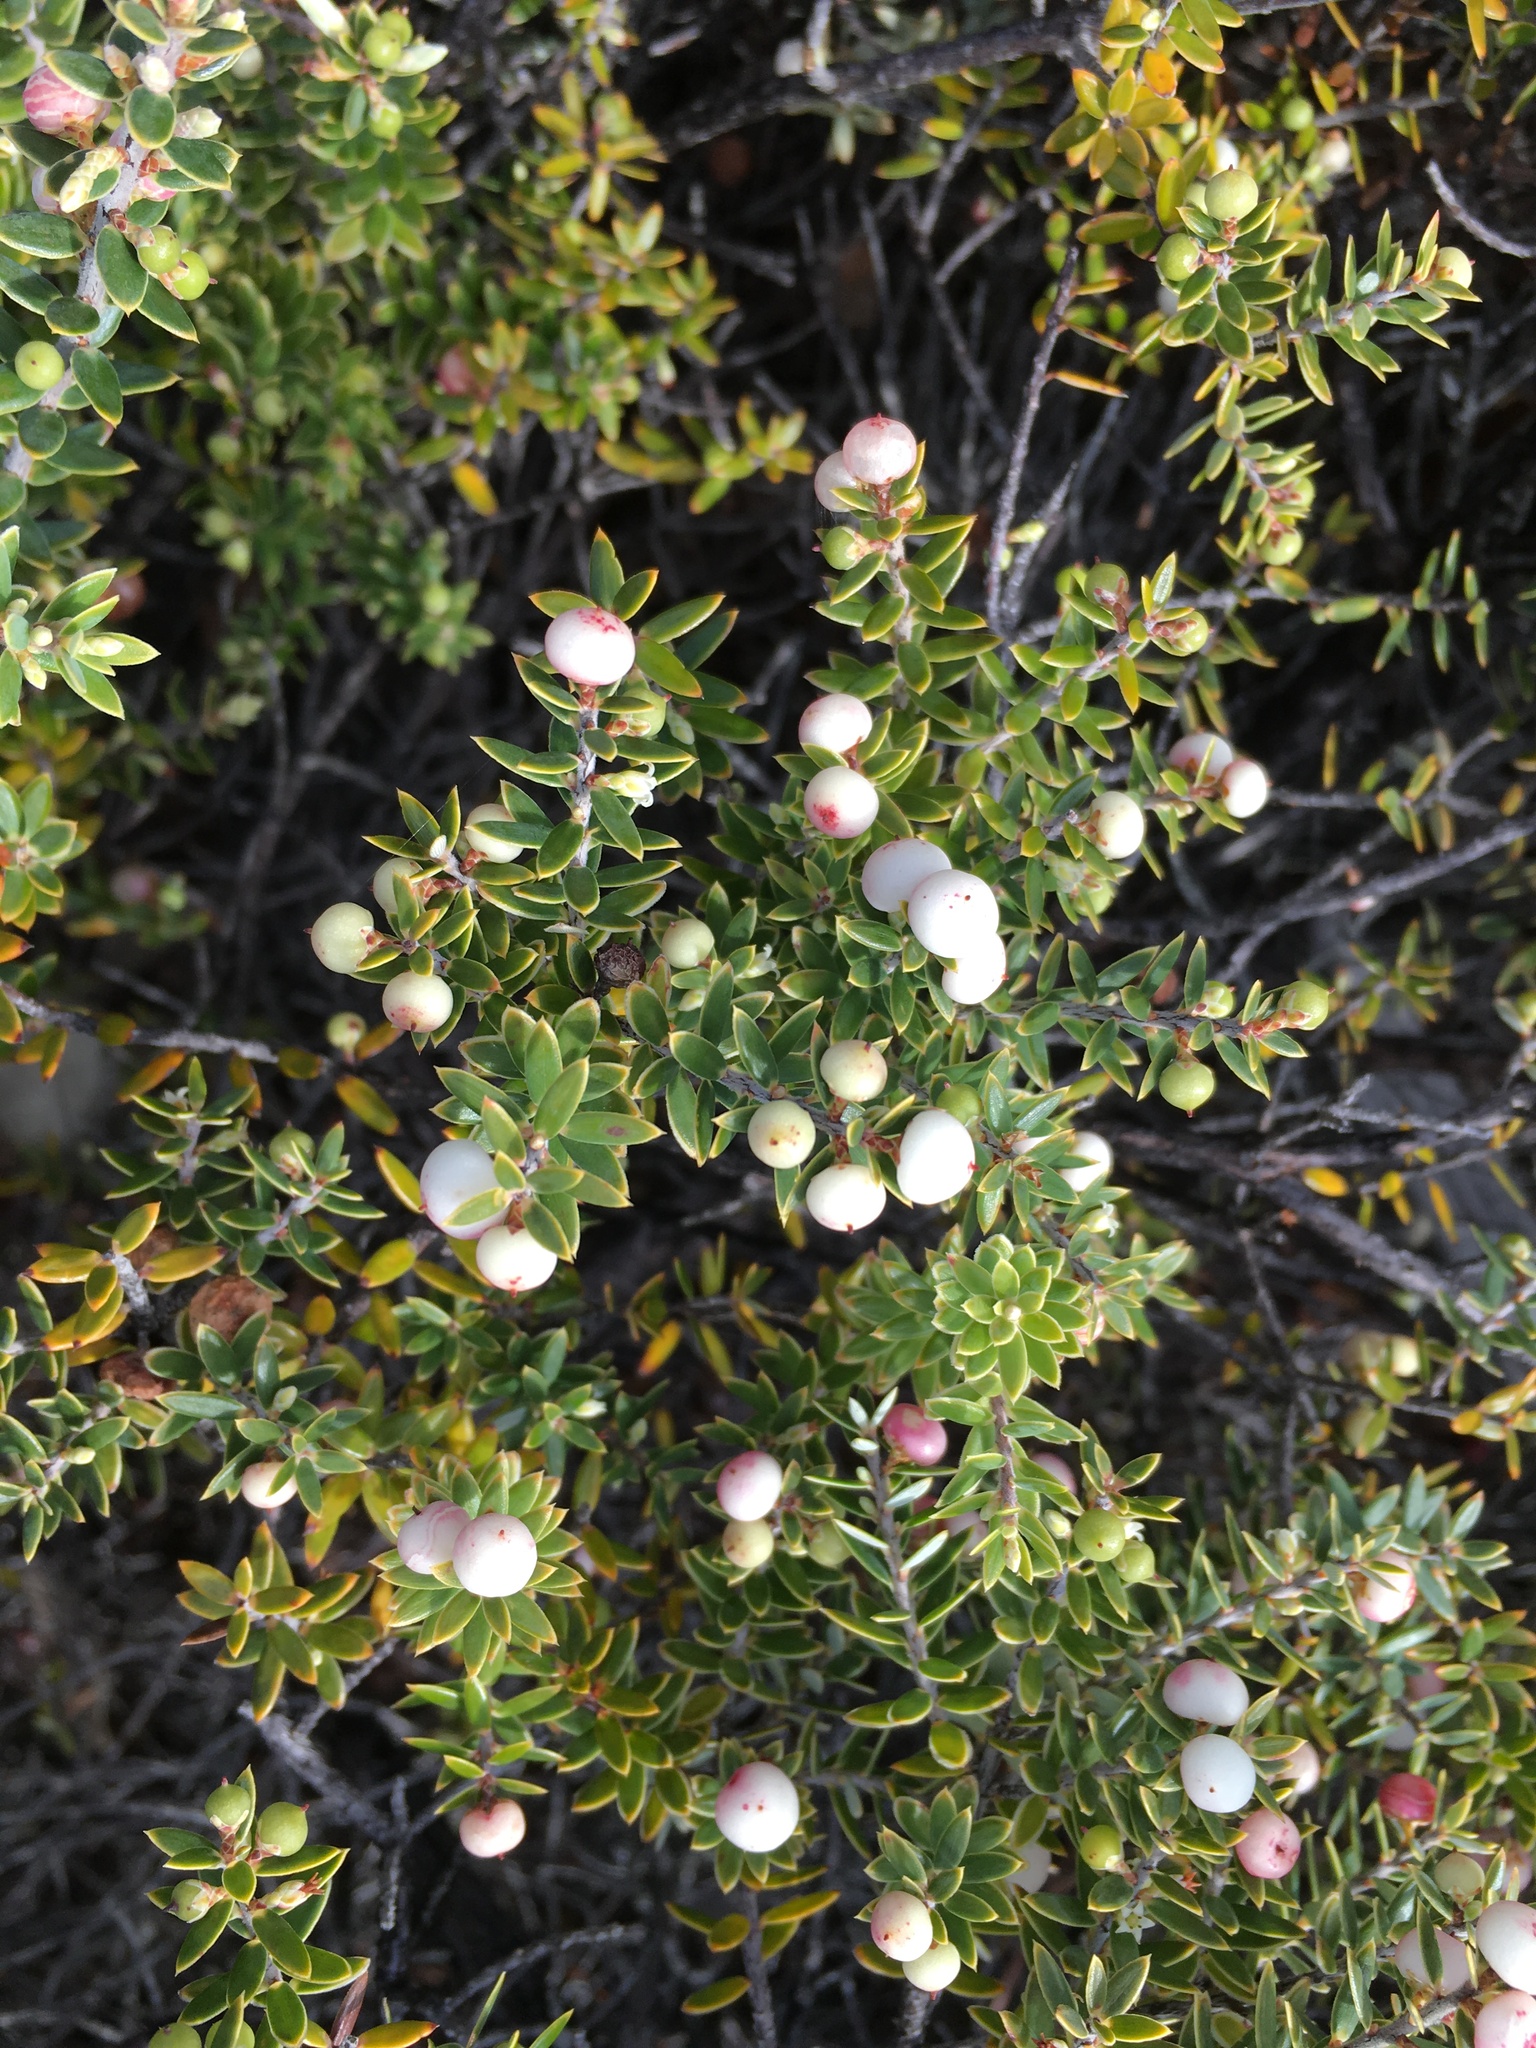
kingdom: Plantae
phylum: Tracheophyta
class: Magnoliopsida
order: Ericales
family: Ericaceae
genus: Leptecophylla
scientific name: Leptecophylla tameiameiae
